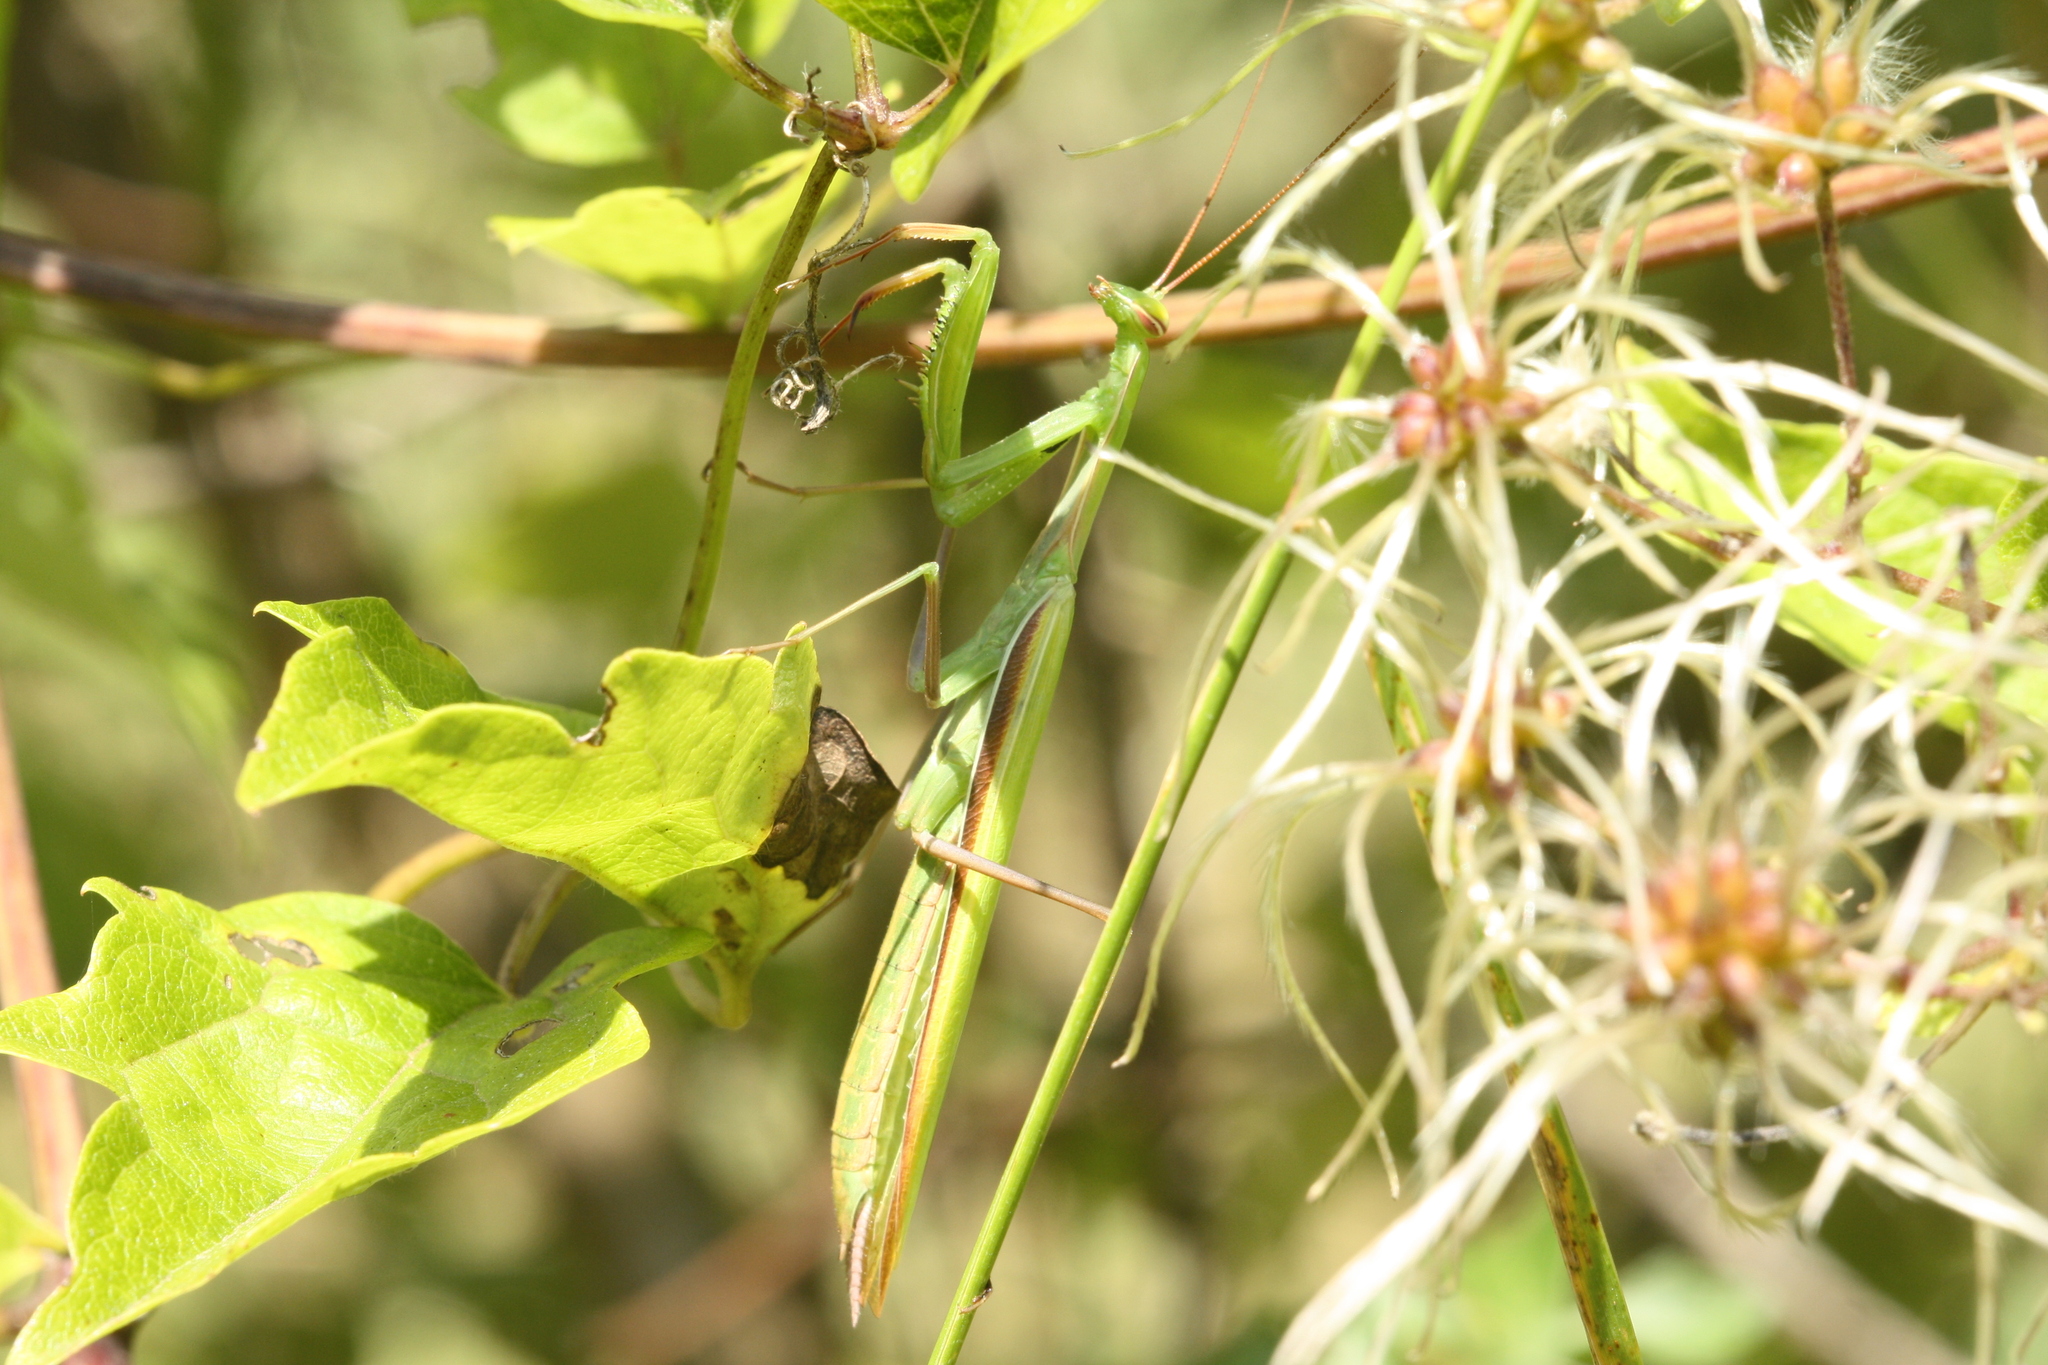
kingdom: Animalia
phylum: Arthropoda
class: Insecta
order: Mantodea
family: Mantidae
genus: Mantis
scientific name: Mantis religiosa
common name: Praying mantis
